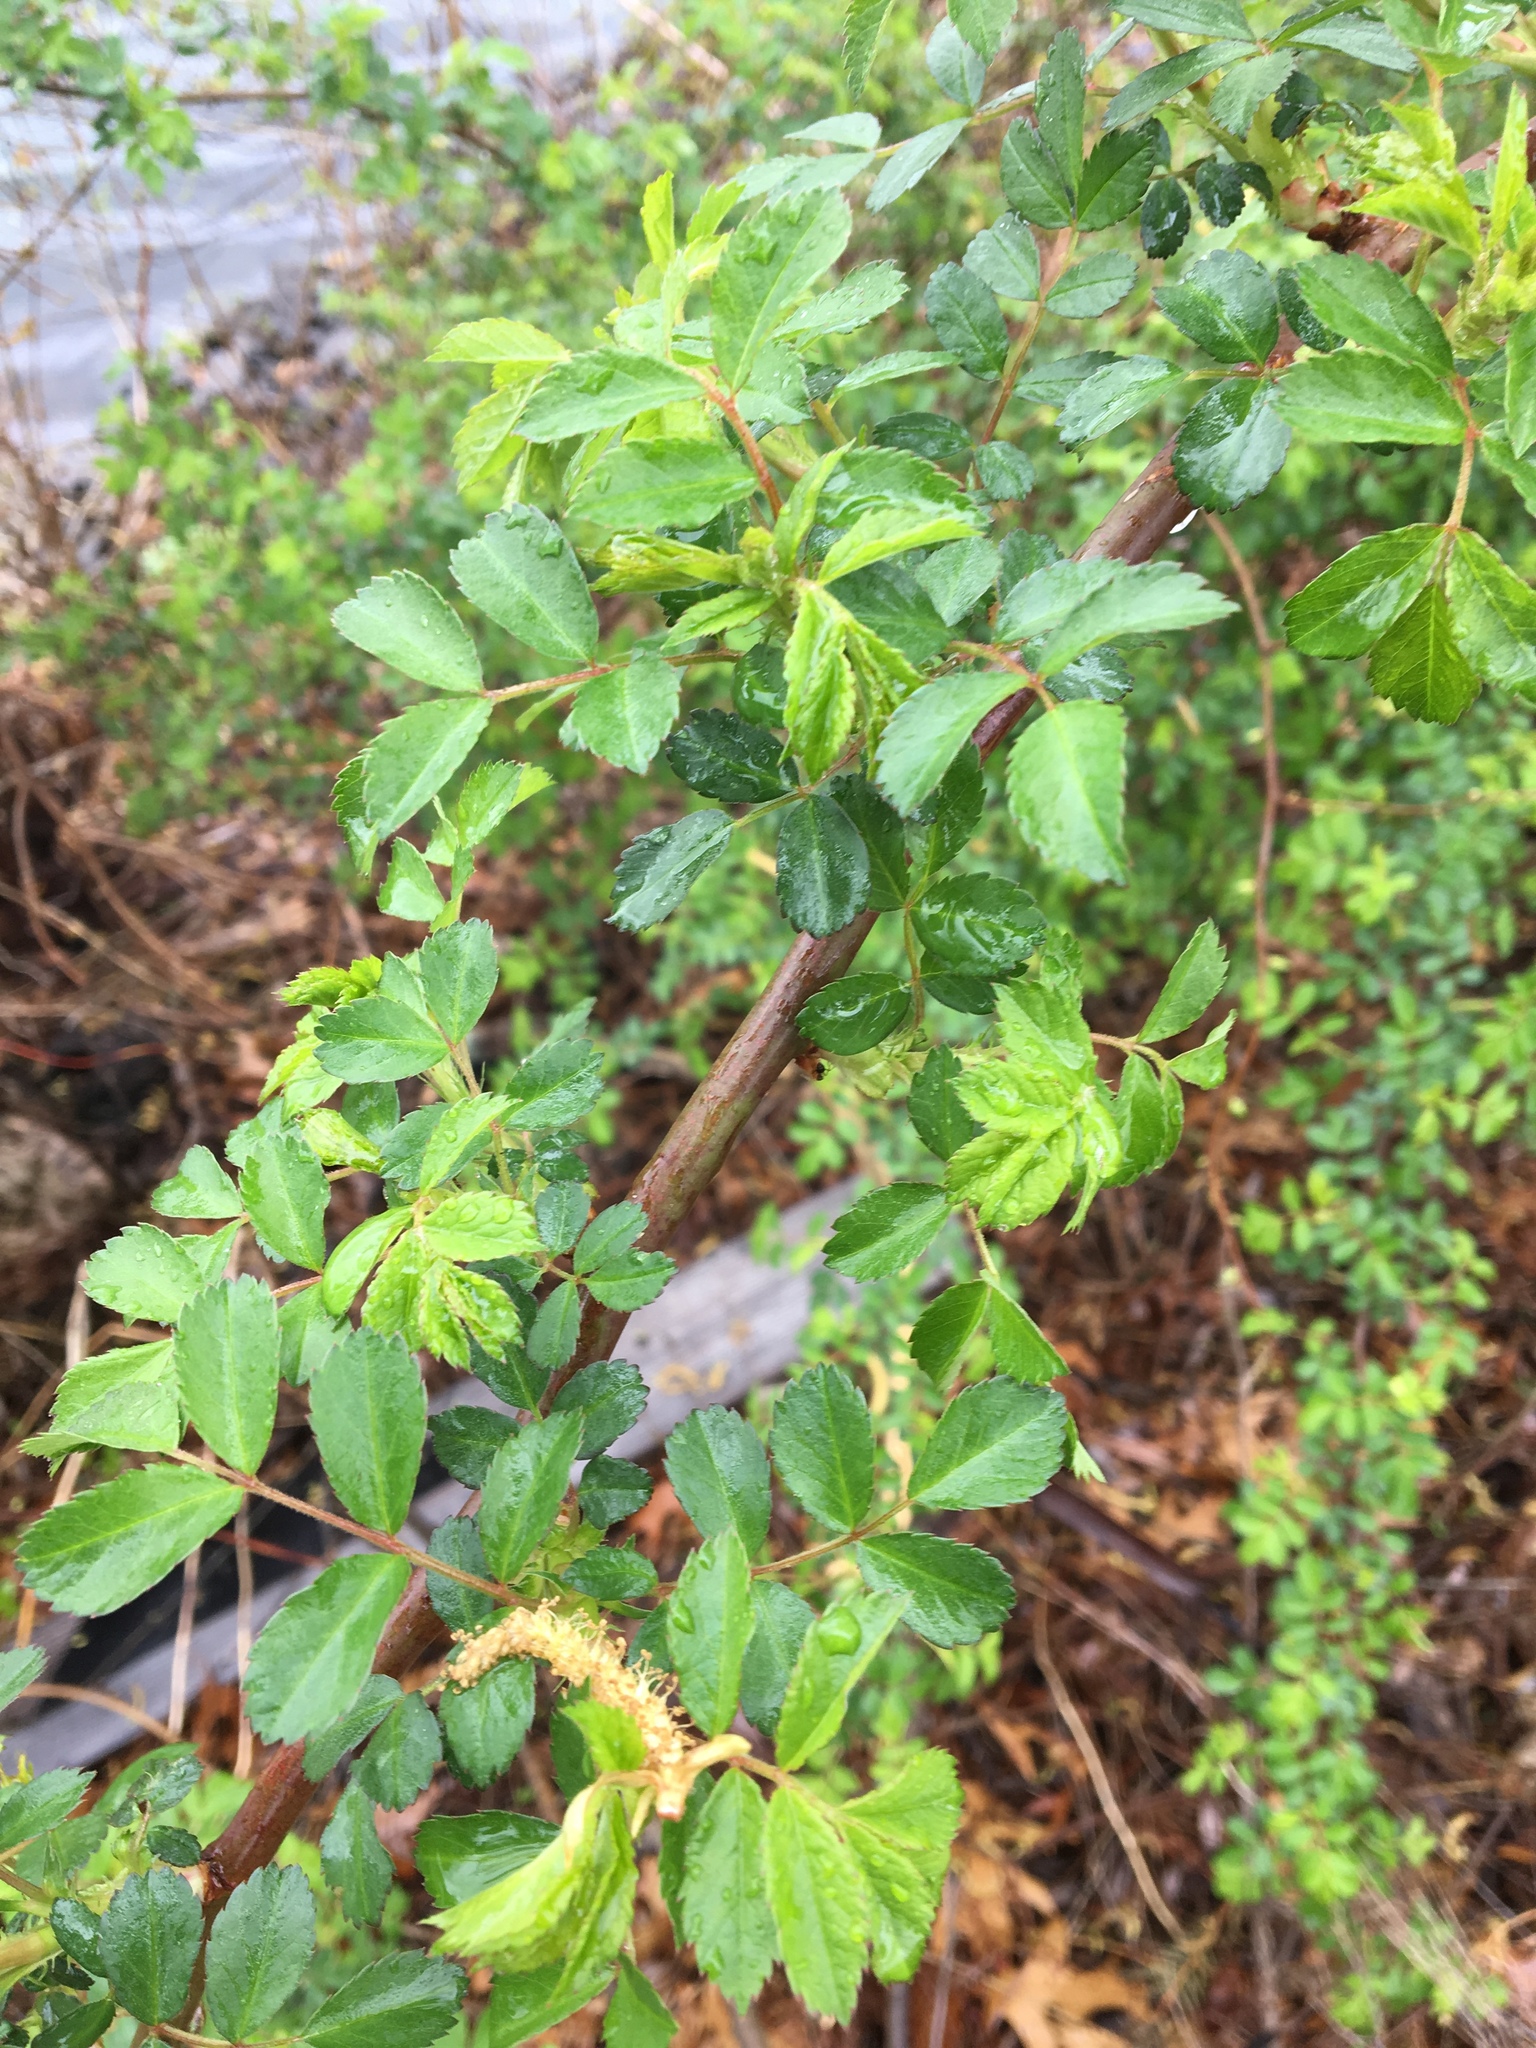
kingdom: Plantae
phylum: Tracheophyta
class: Magnoliopsida
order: Rosales
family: Rosaceae
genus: Rosa
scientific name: Rosa multiflora
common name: Multiflora rose
